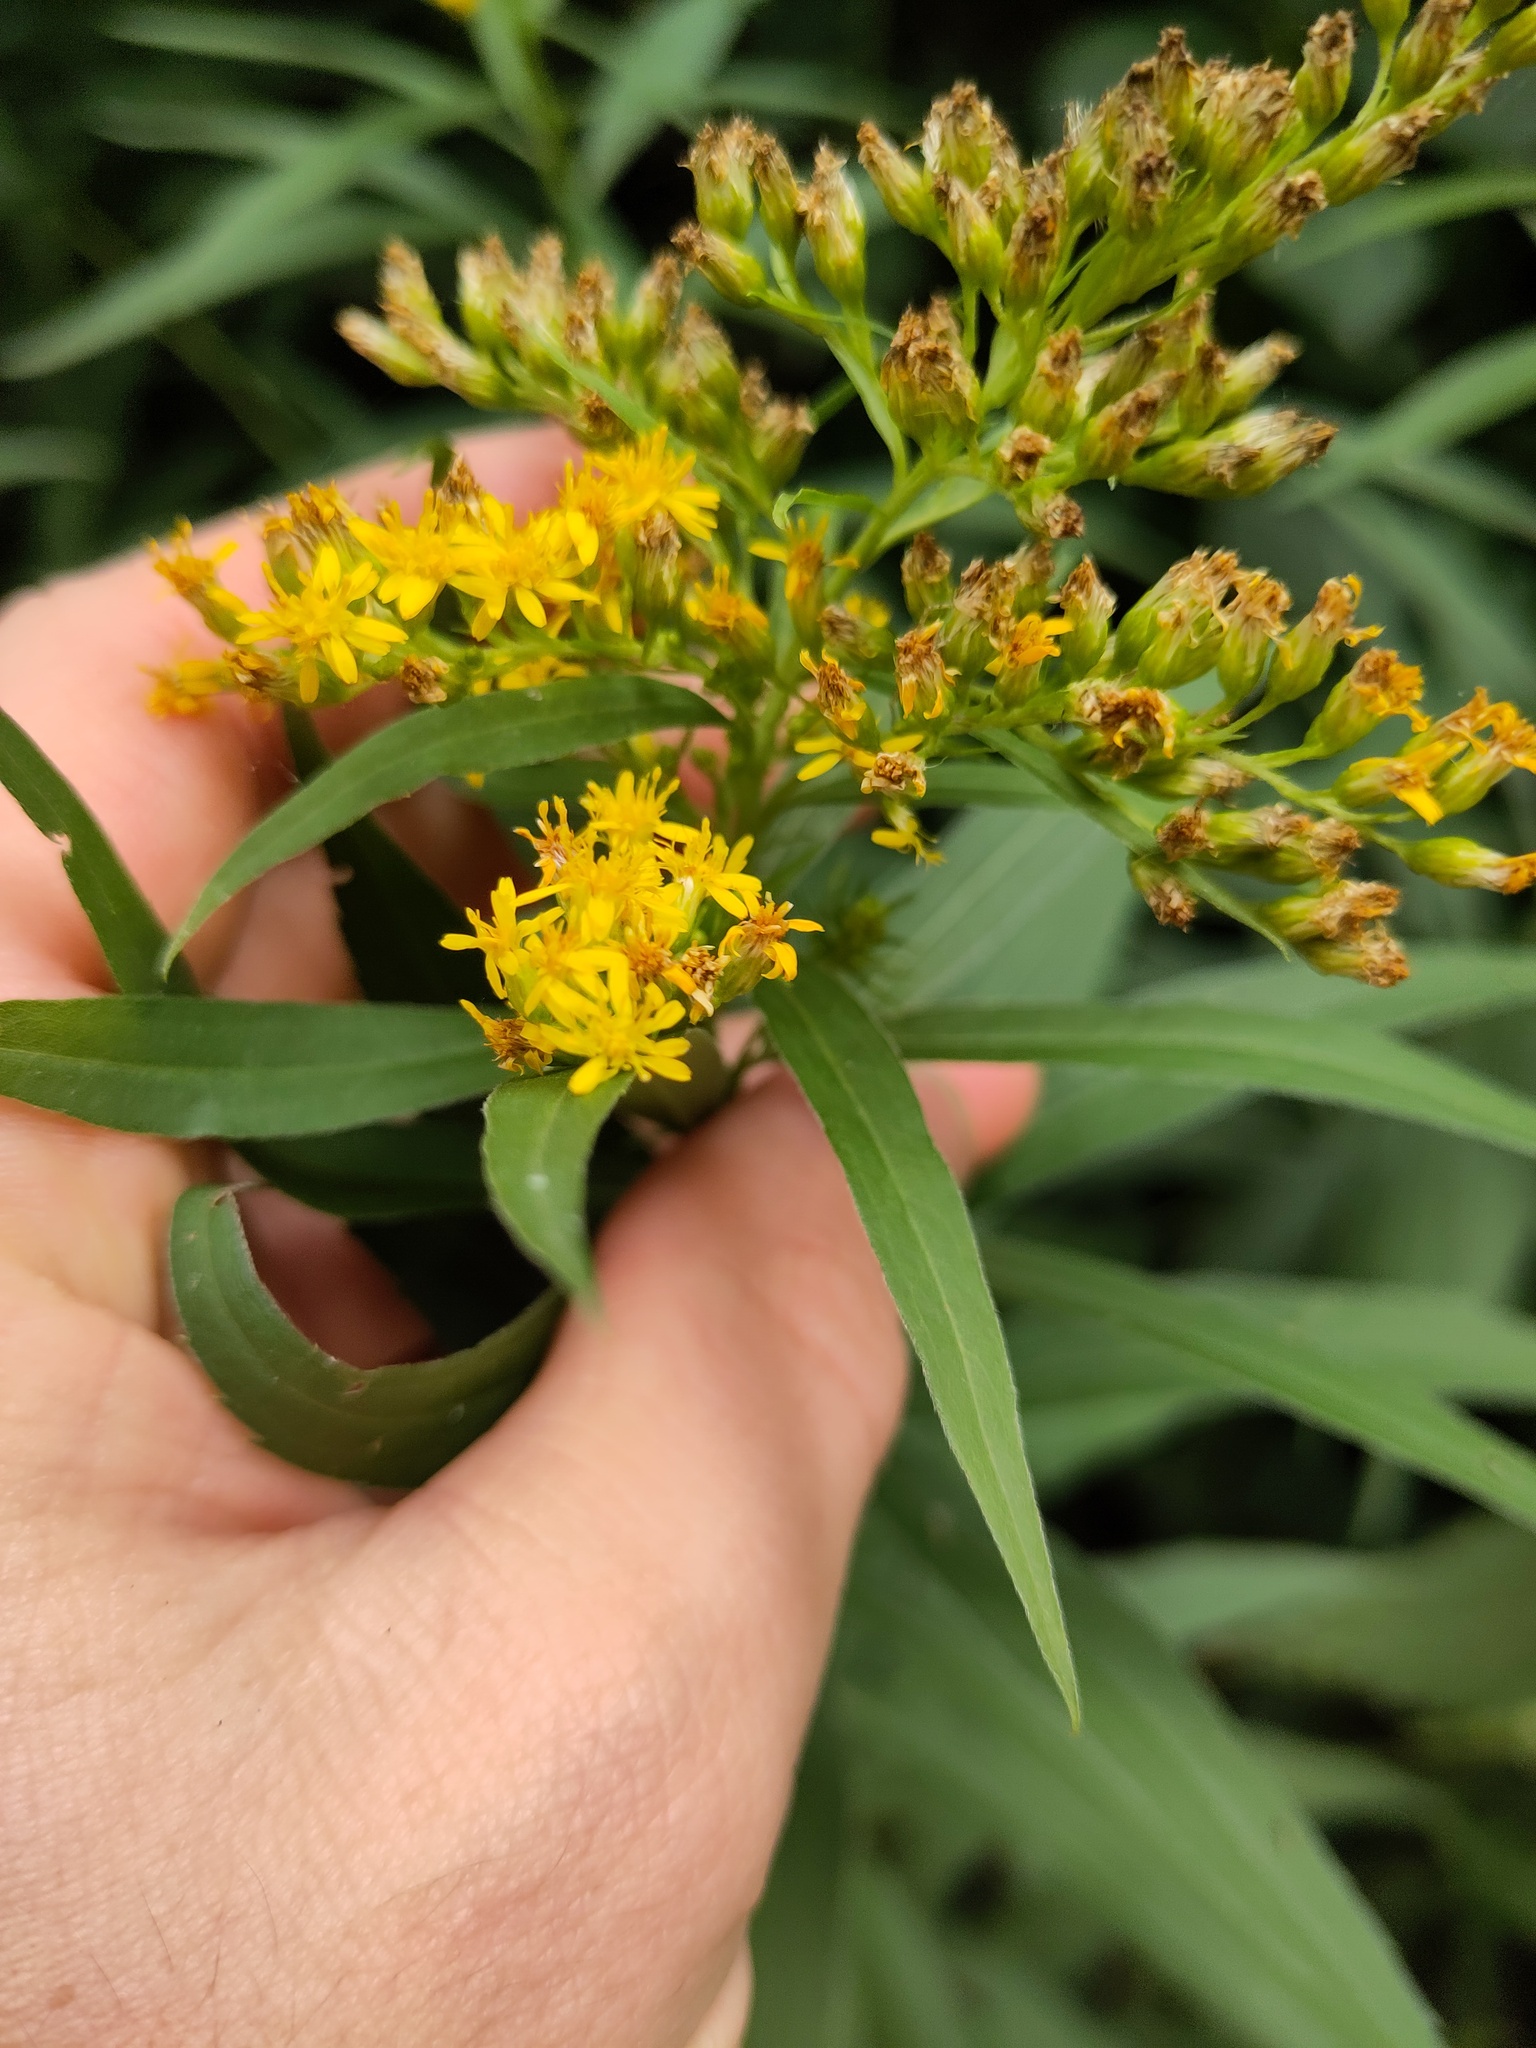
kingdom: Plantae
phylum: Tracheophyta
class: Magnoliopsida
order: Asterales
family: Asteraceae
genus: Solidago
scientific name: Solidago gigantea
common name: Giant goldenrod
